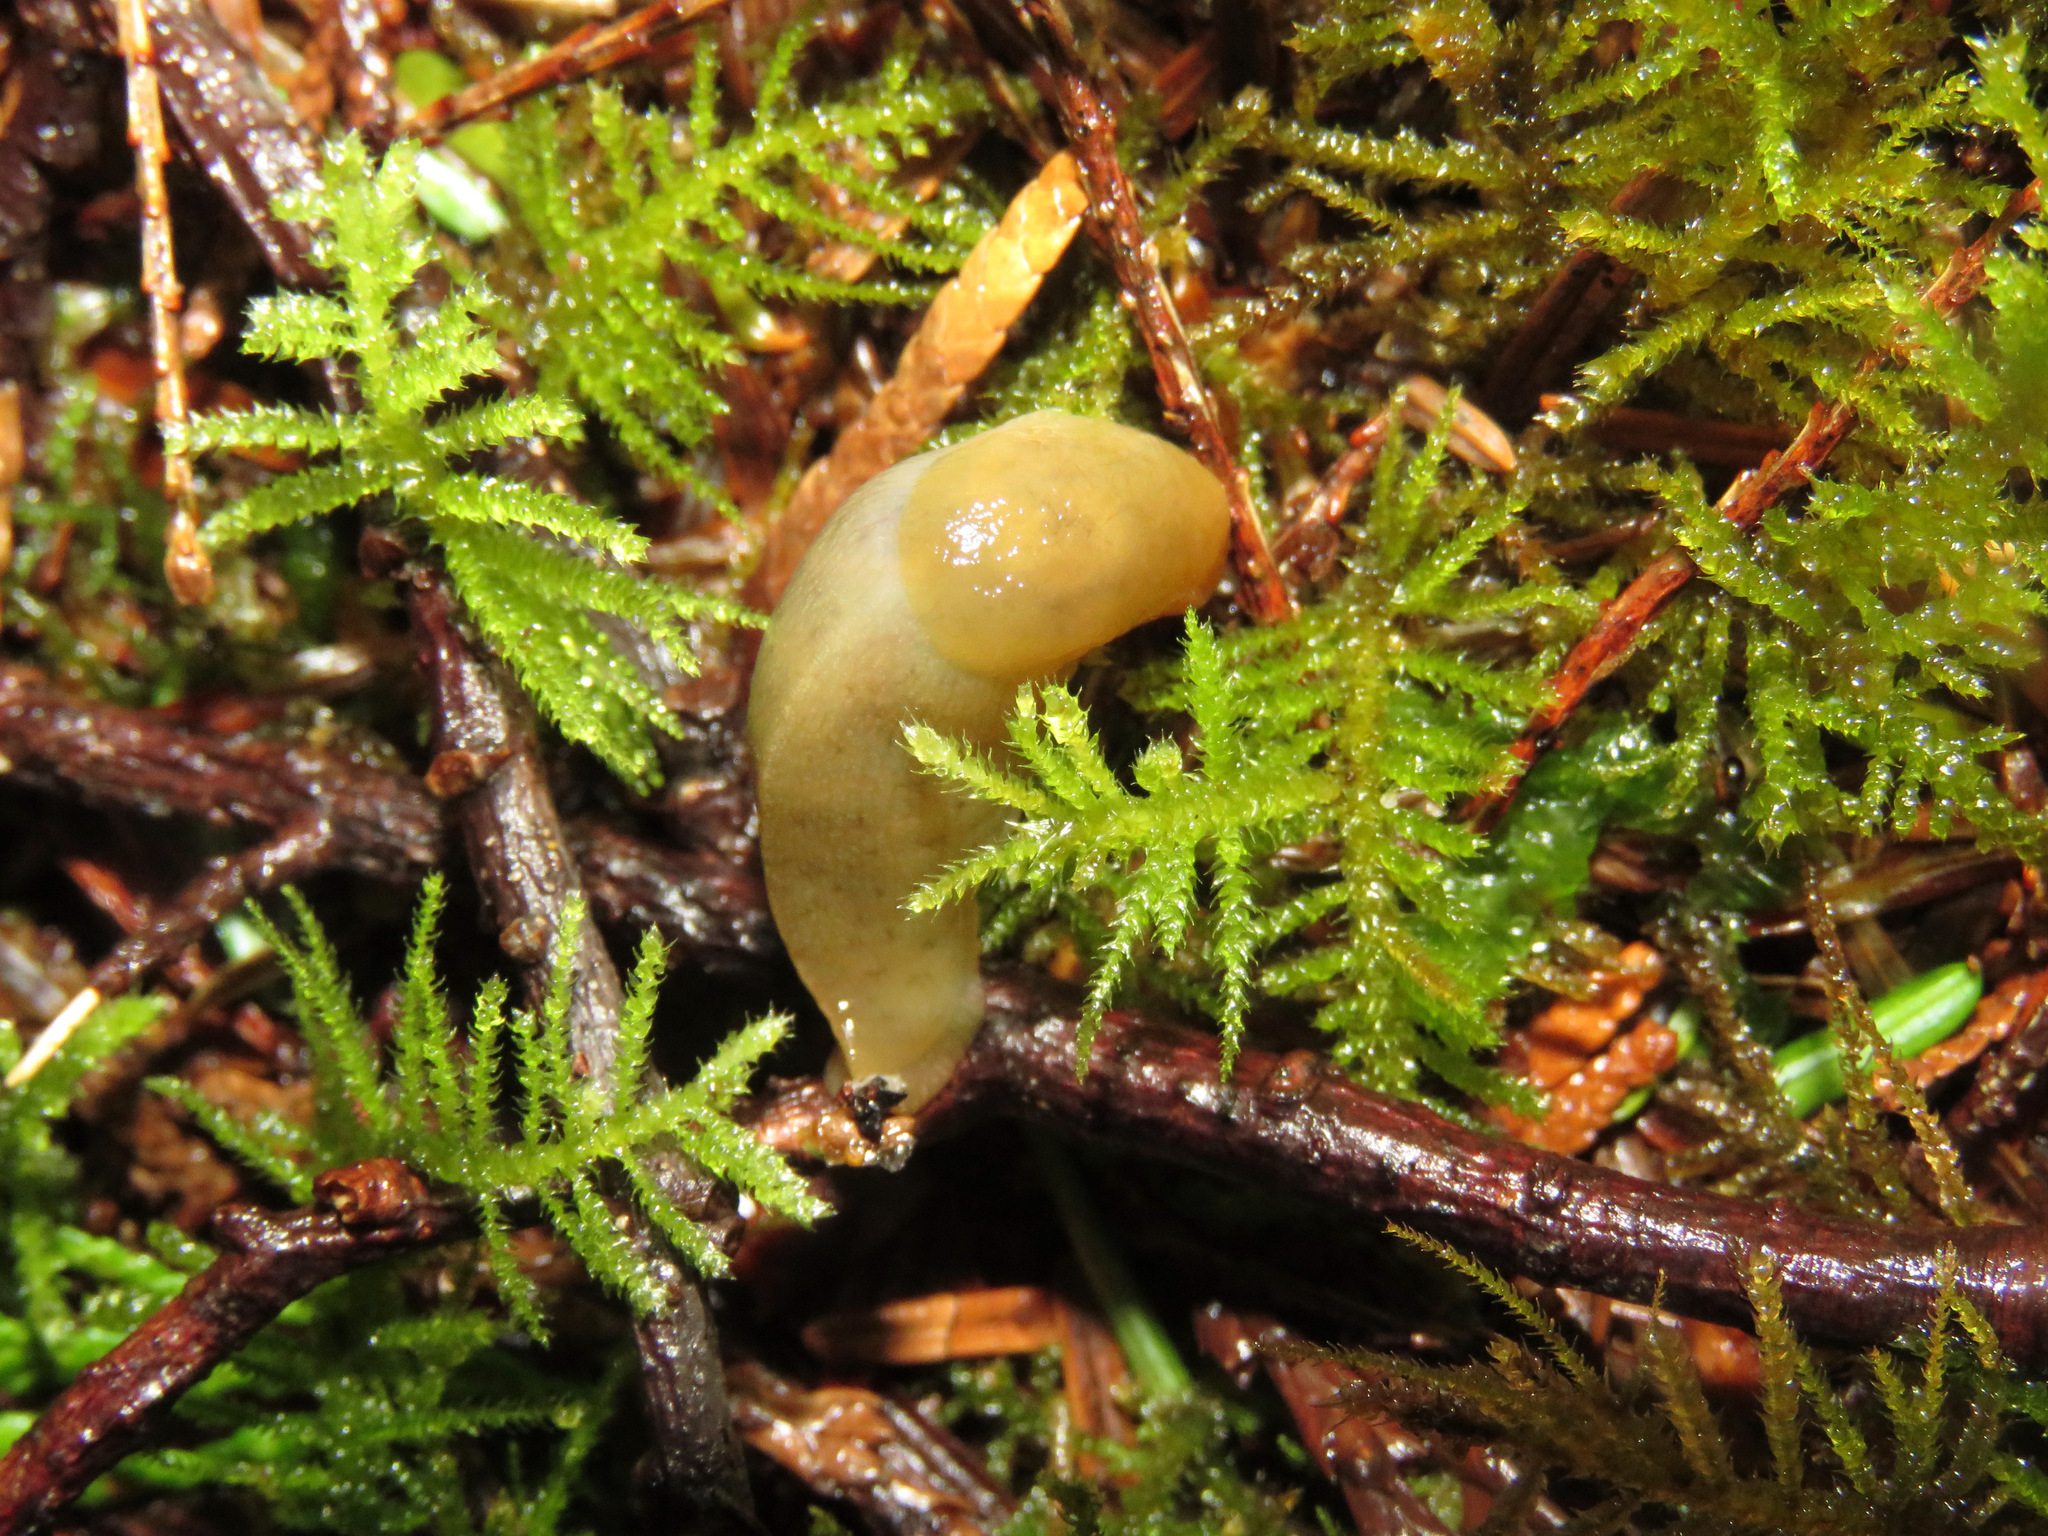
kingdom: Animalia
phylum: Mollusca
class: Gastropoda
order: Stylommatophora
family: Ariolimacidae
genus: Ariolimax
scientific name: Ariolimax columbianus
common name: Pacific banana slug
